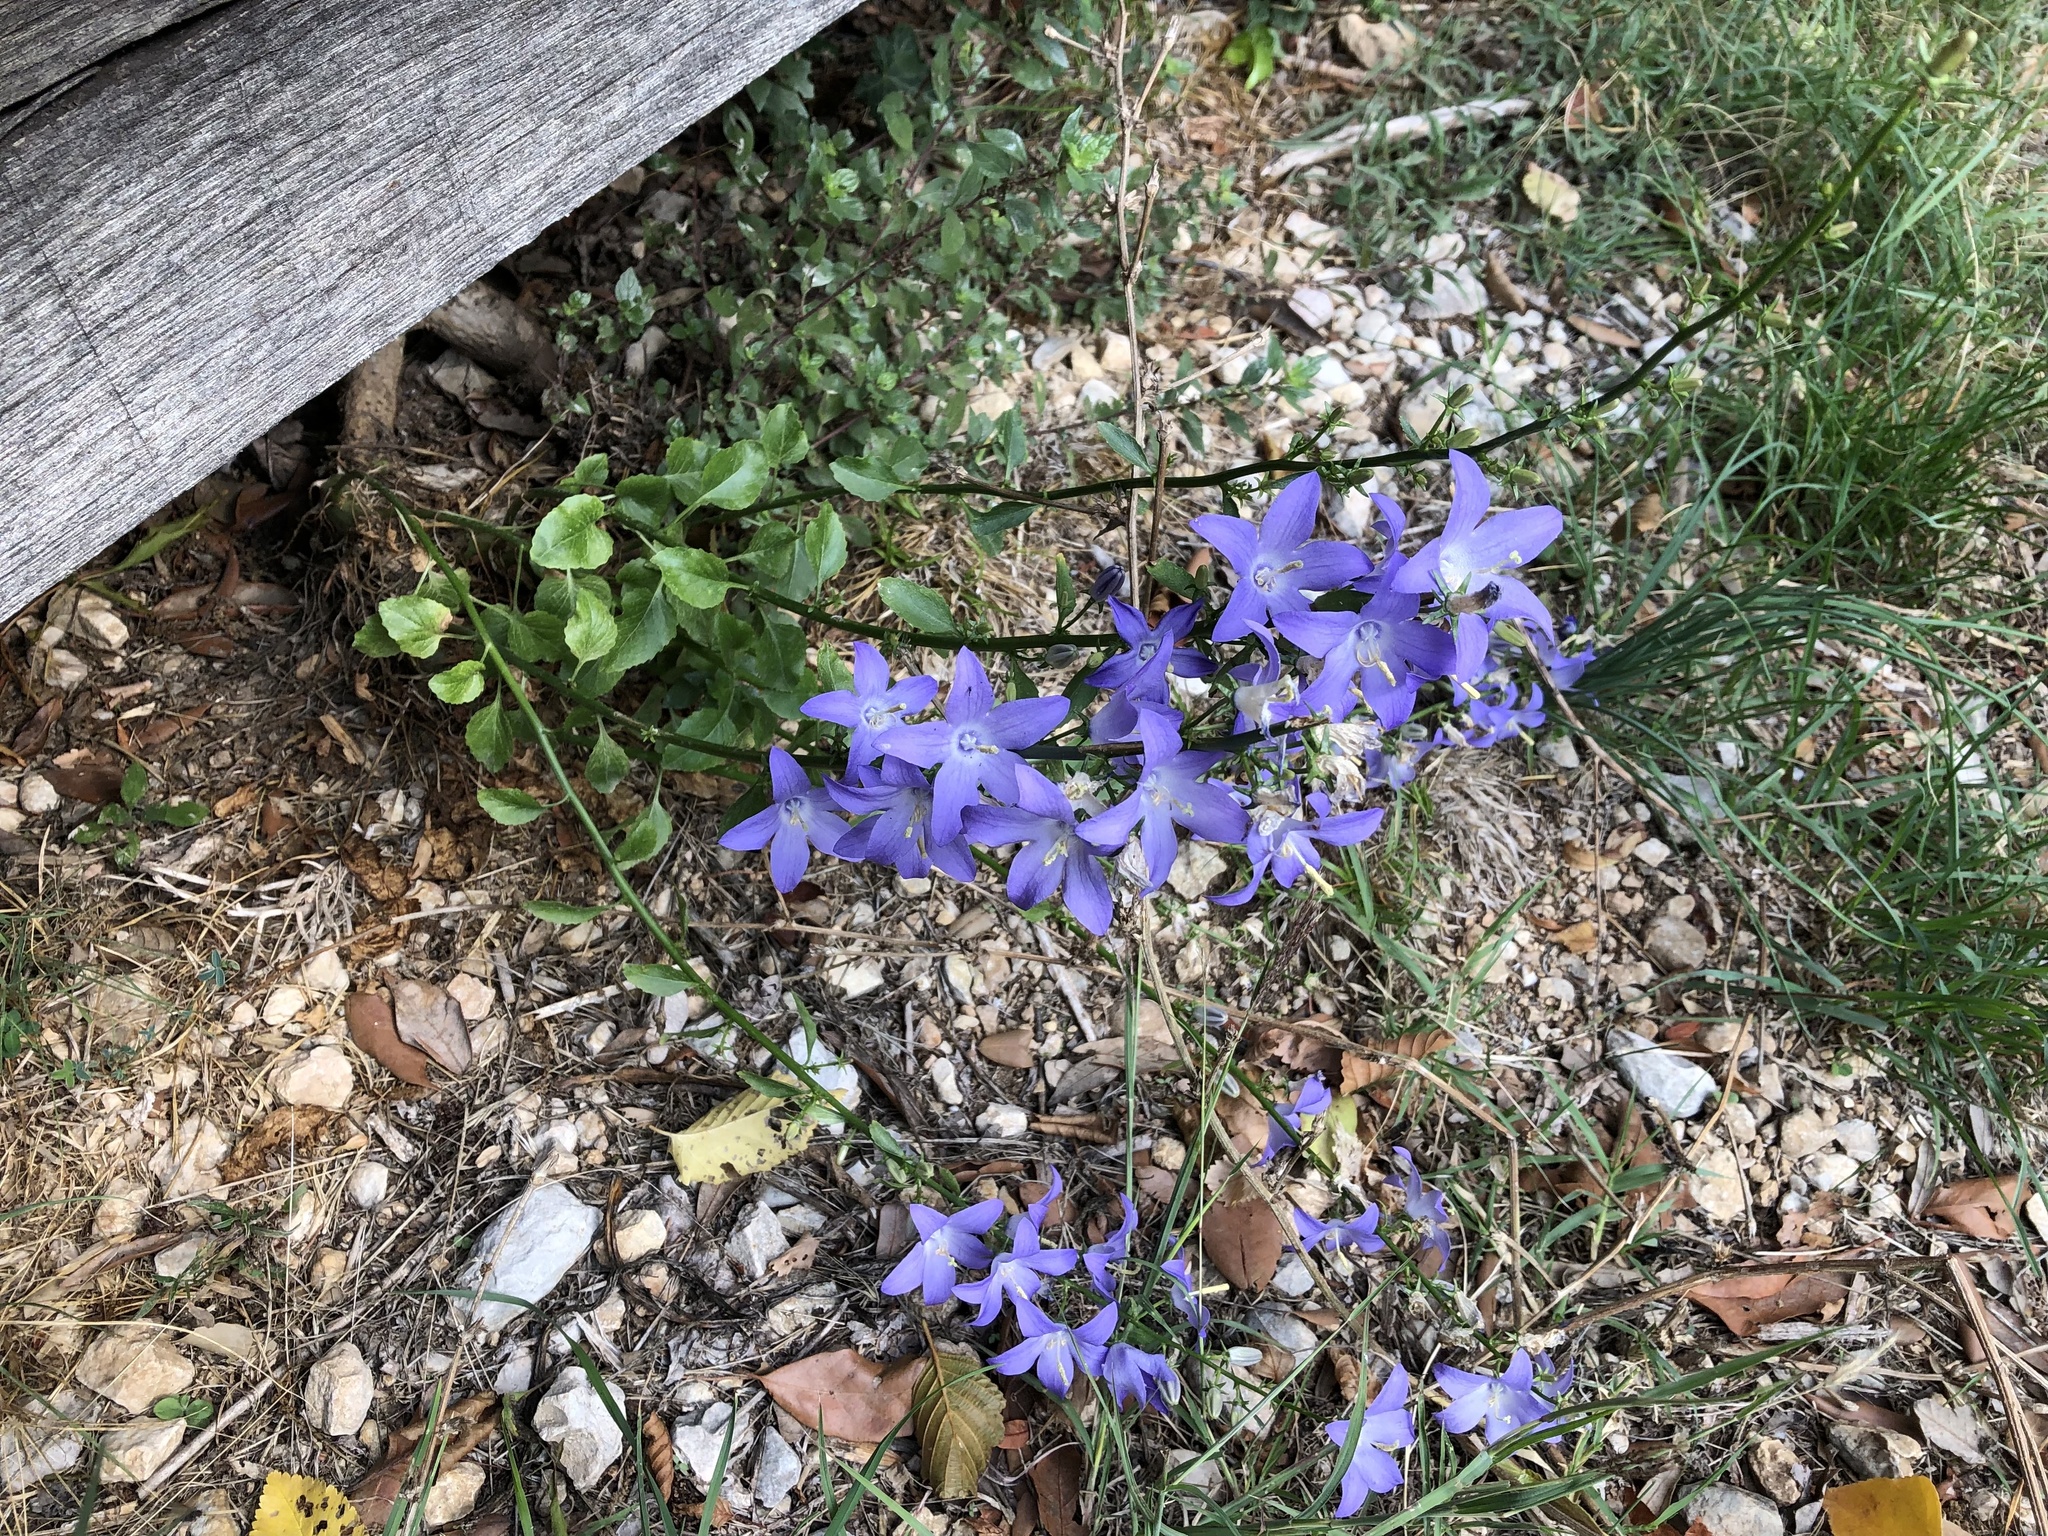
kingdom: Plantae
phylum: Tracheophyta
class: Magnoliopsida
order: Asterales
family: Campanulaceae
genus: Campanula
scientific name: Campanula pyramidalis
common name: Chimney bellflower
